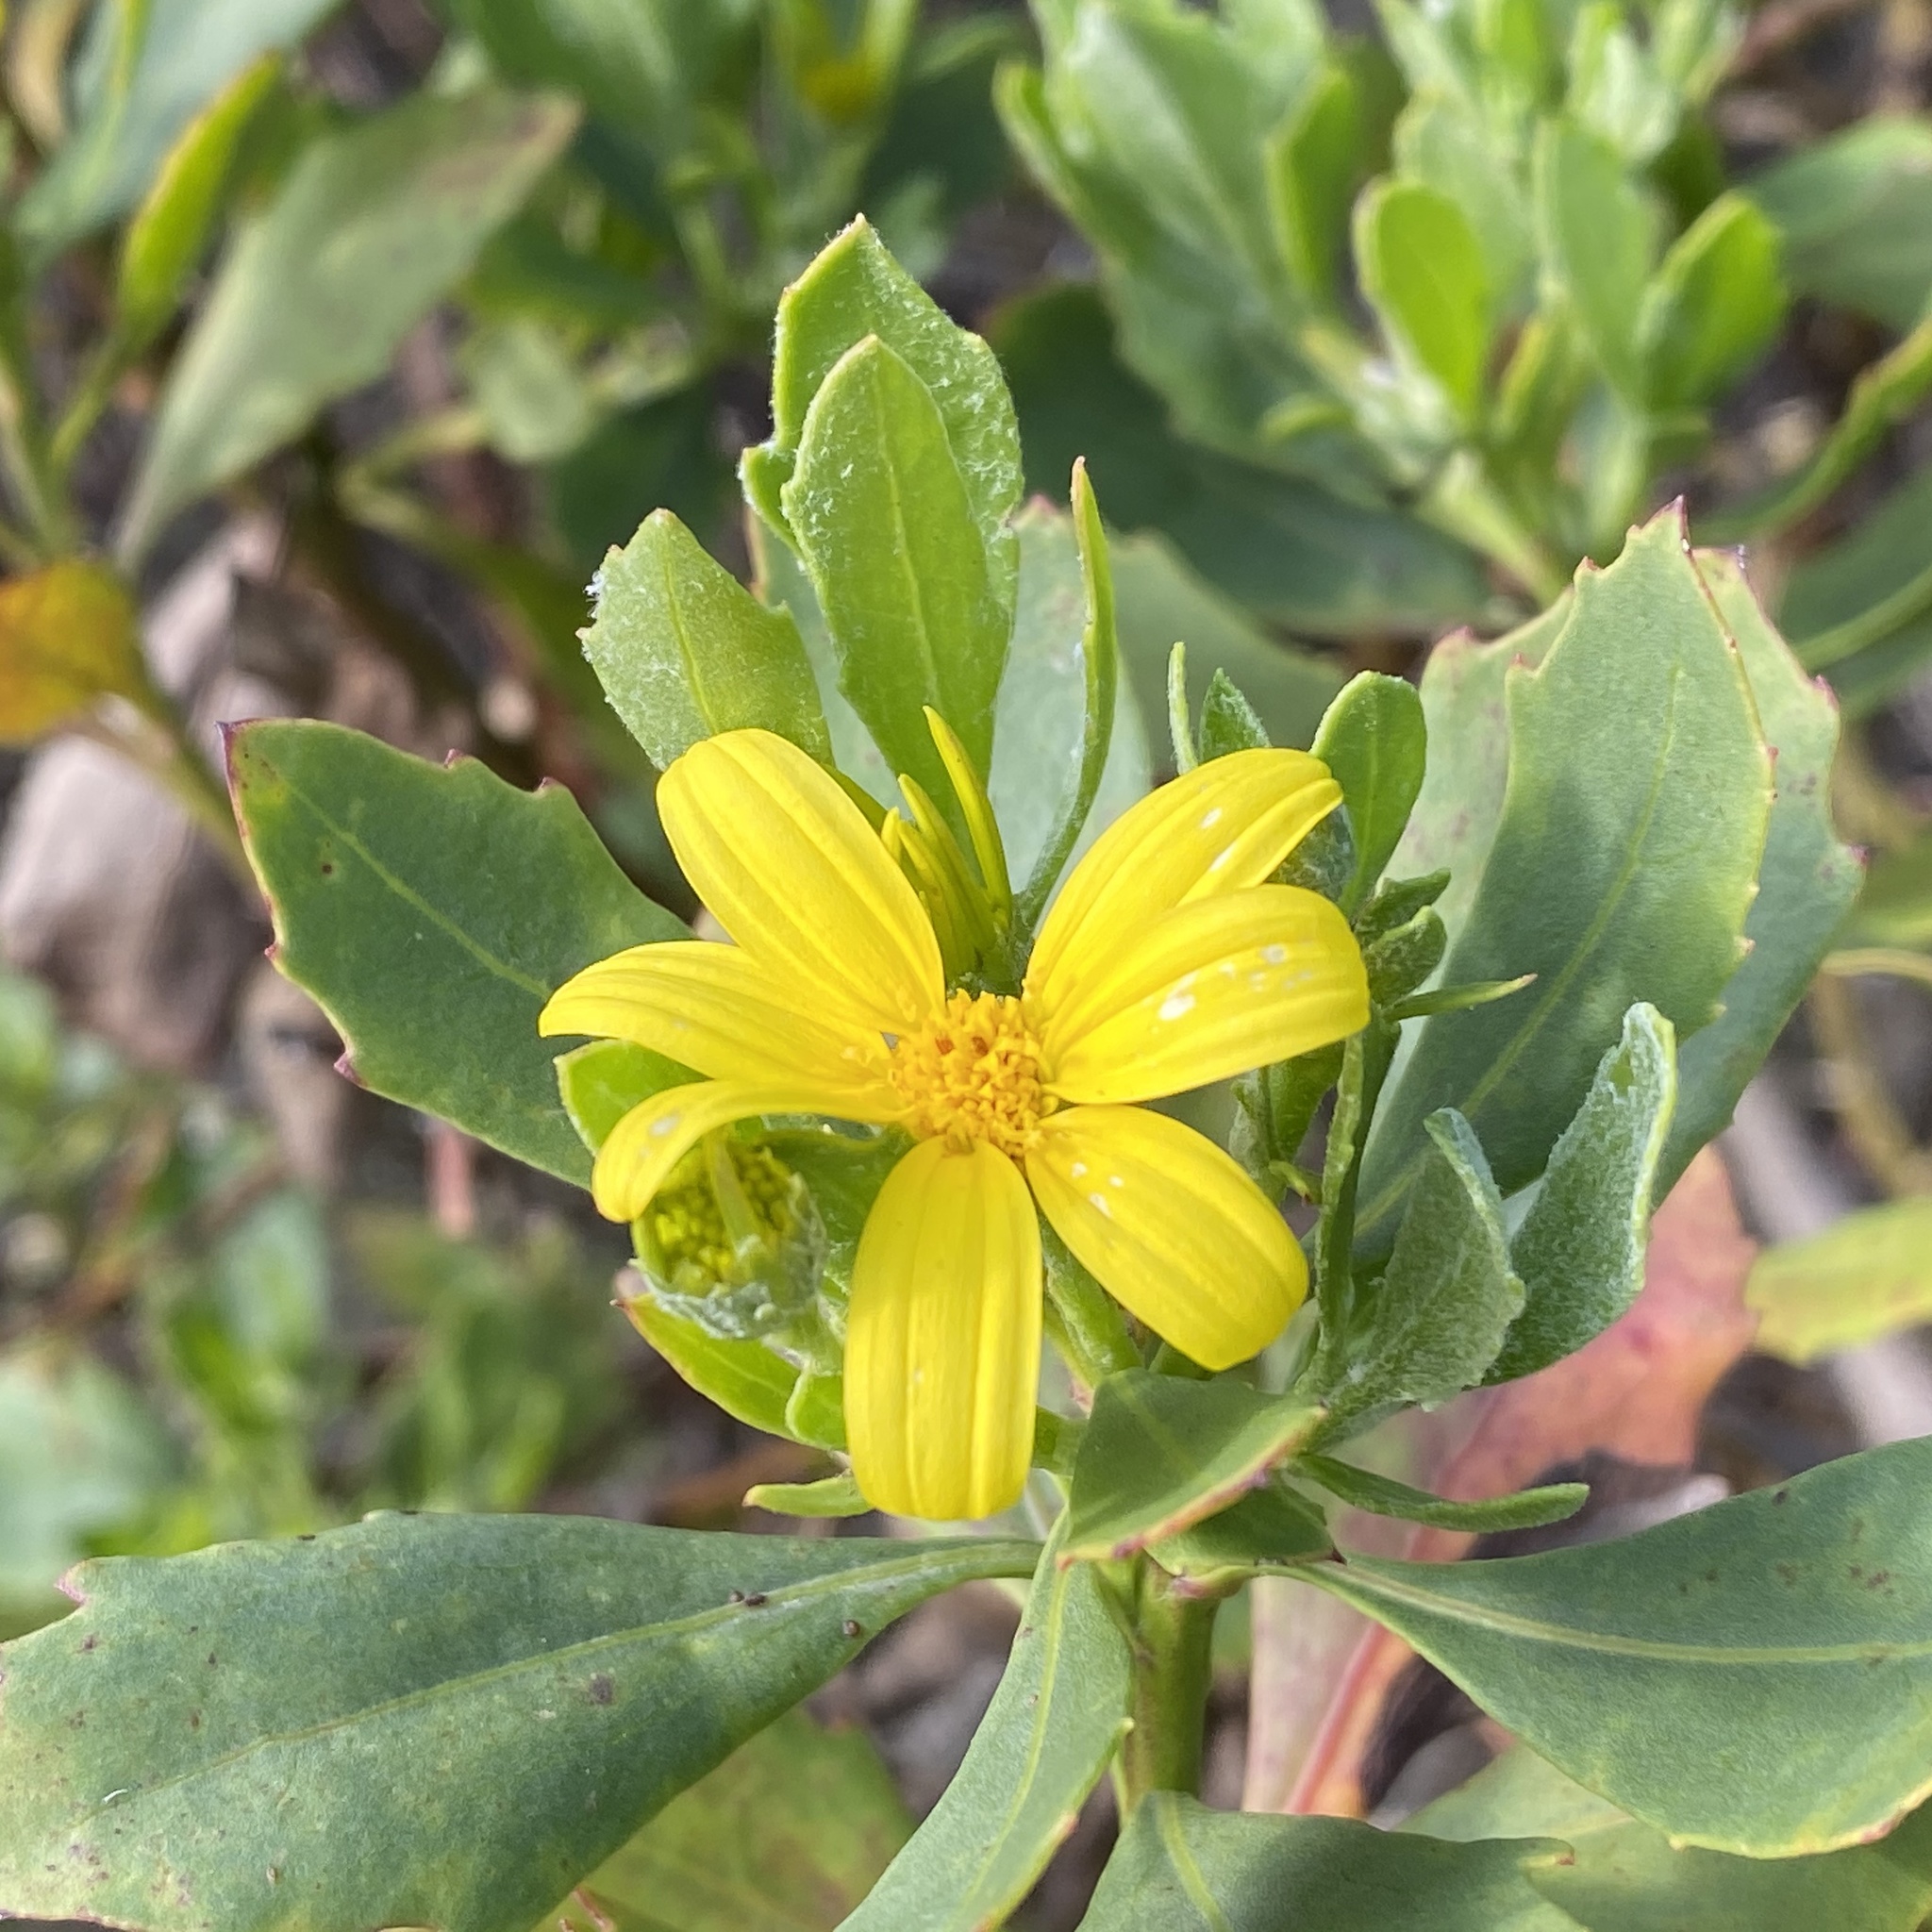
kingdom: Plantae
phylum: Tracheophyta
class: Magnoliopsida
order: Asterales
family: Asteraceae
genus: Osteospermum
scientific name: Osteospermum moniliferum
